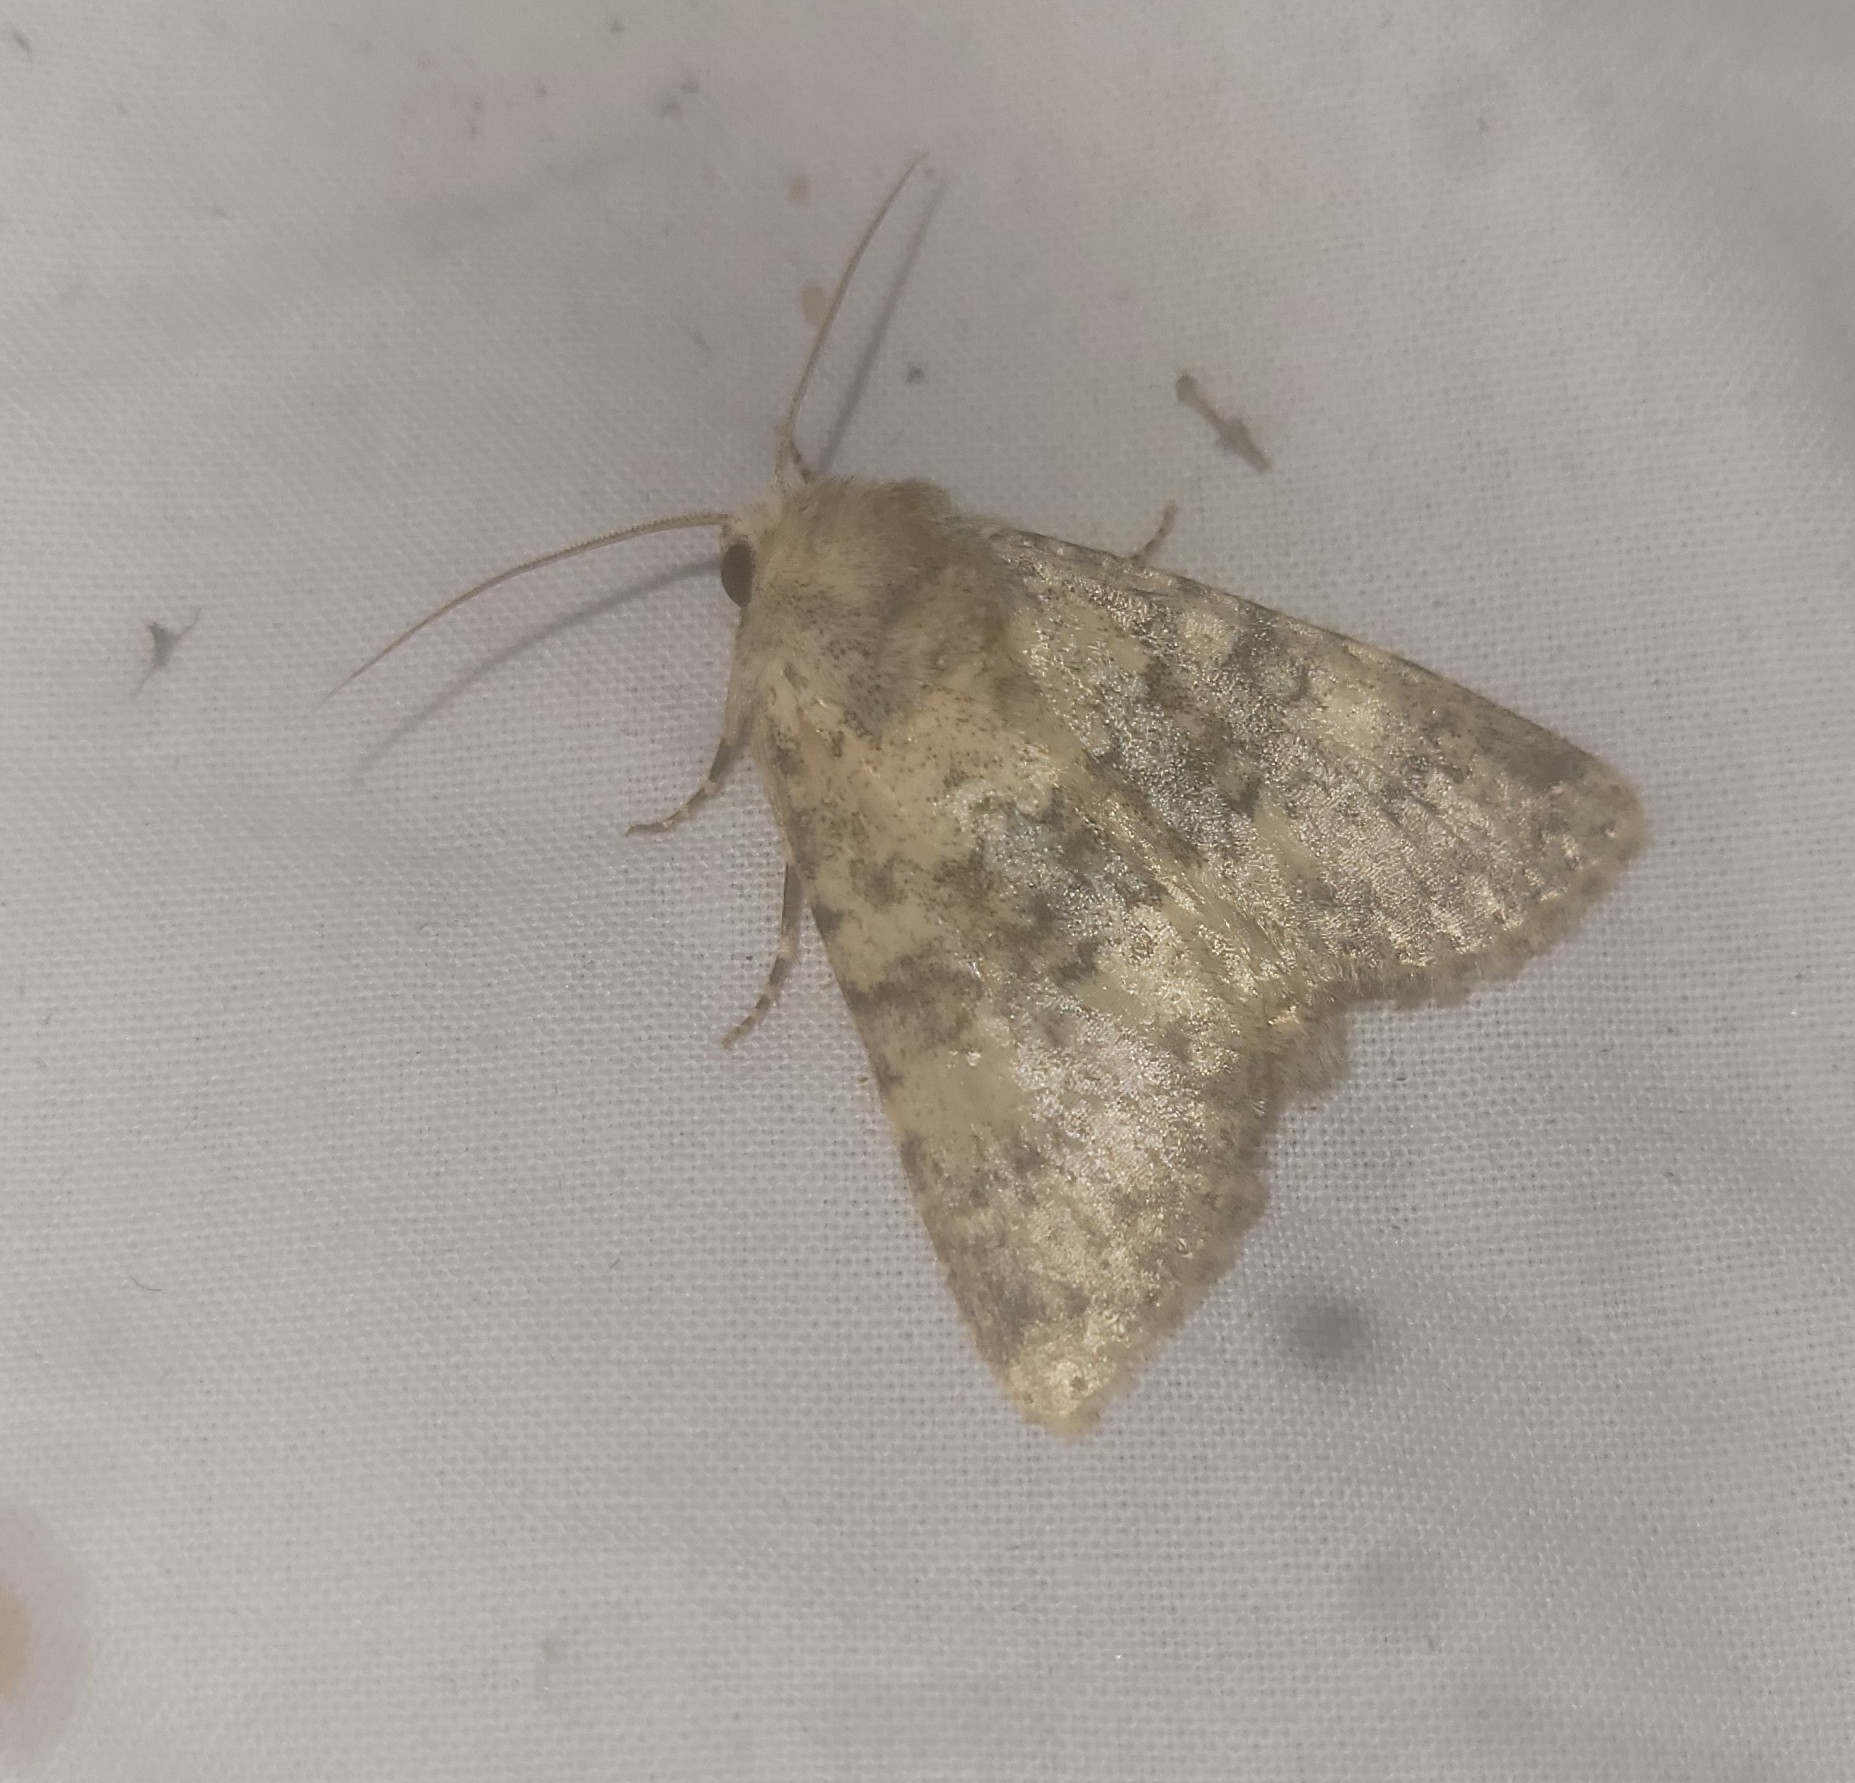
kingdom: Animalia
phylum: Arthropoda
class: Insecta
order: Lepidoptera
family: Noctuidae
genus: Polymixis
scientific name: Polymixis dubia
